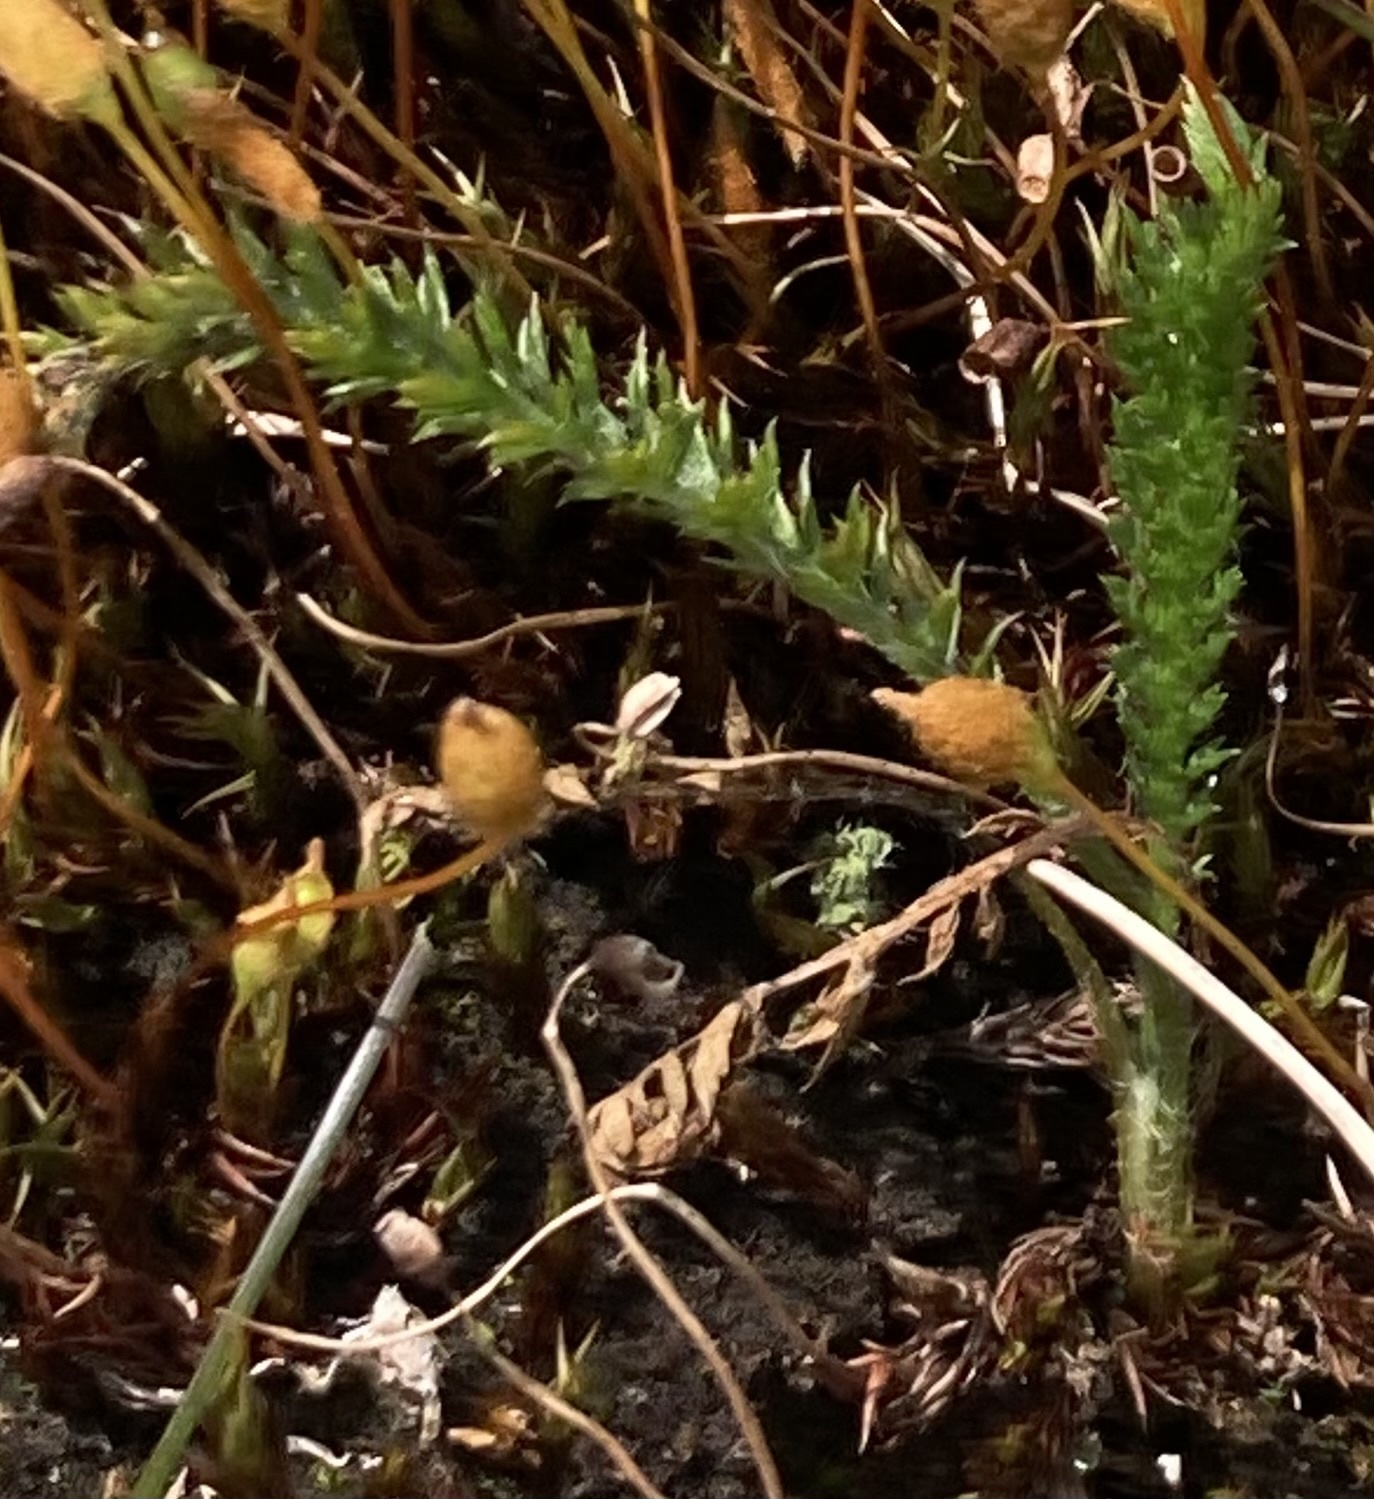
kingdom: Plantae
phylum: Tracheophyta
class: Lycopodiopsida
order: Selaginellales
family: Selaginellaceae
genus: Selaginella
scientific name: Selaginella selaginoides
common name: Prickly mountain-moss
